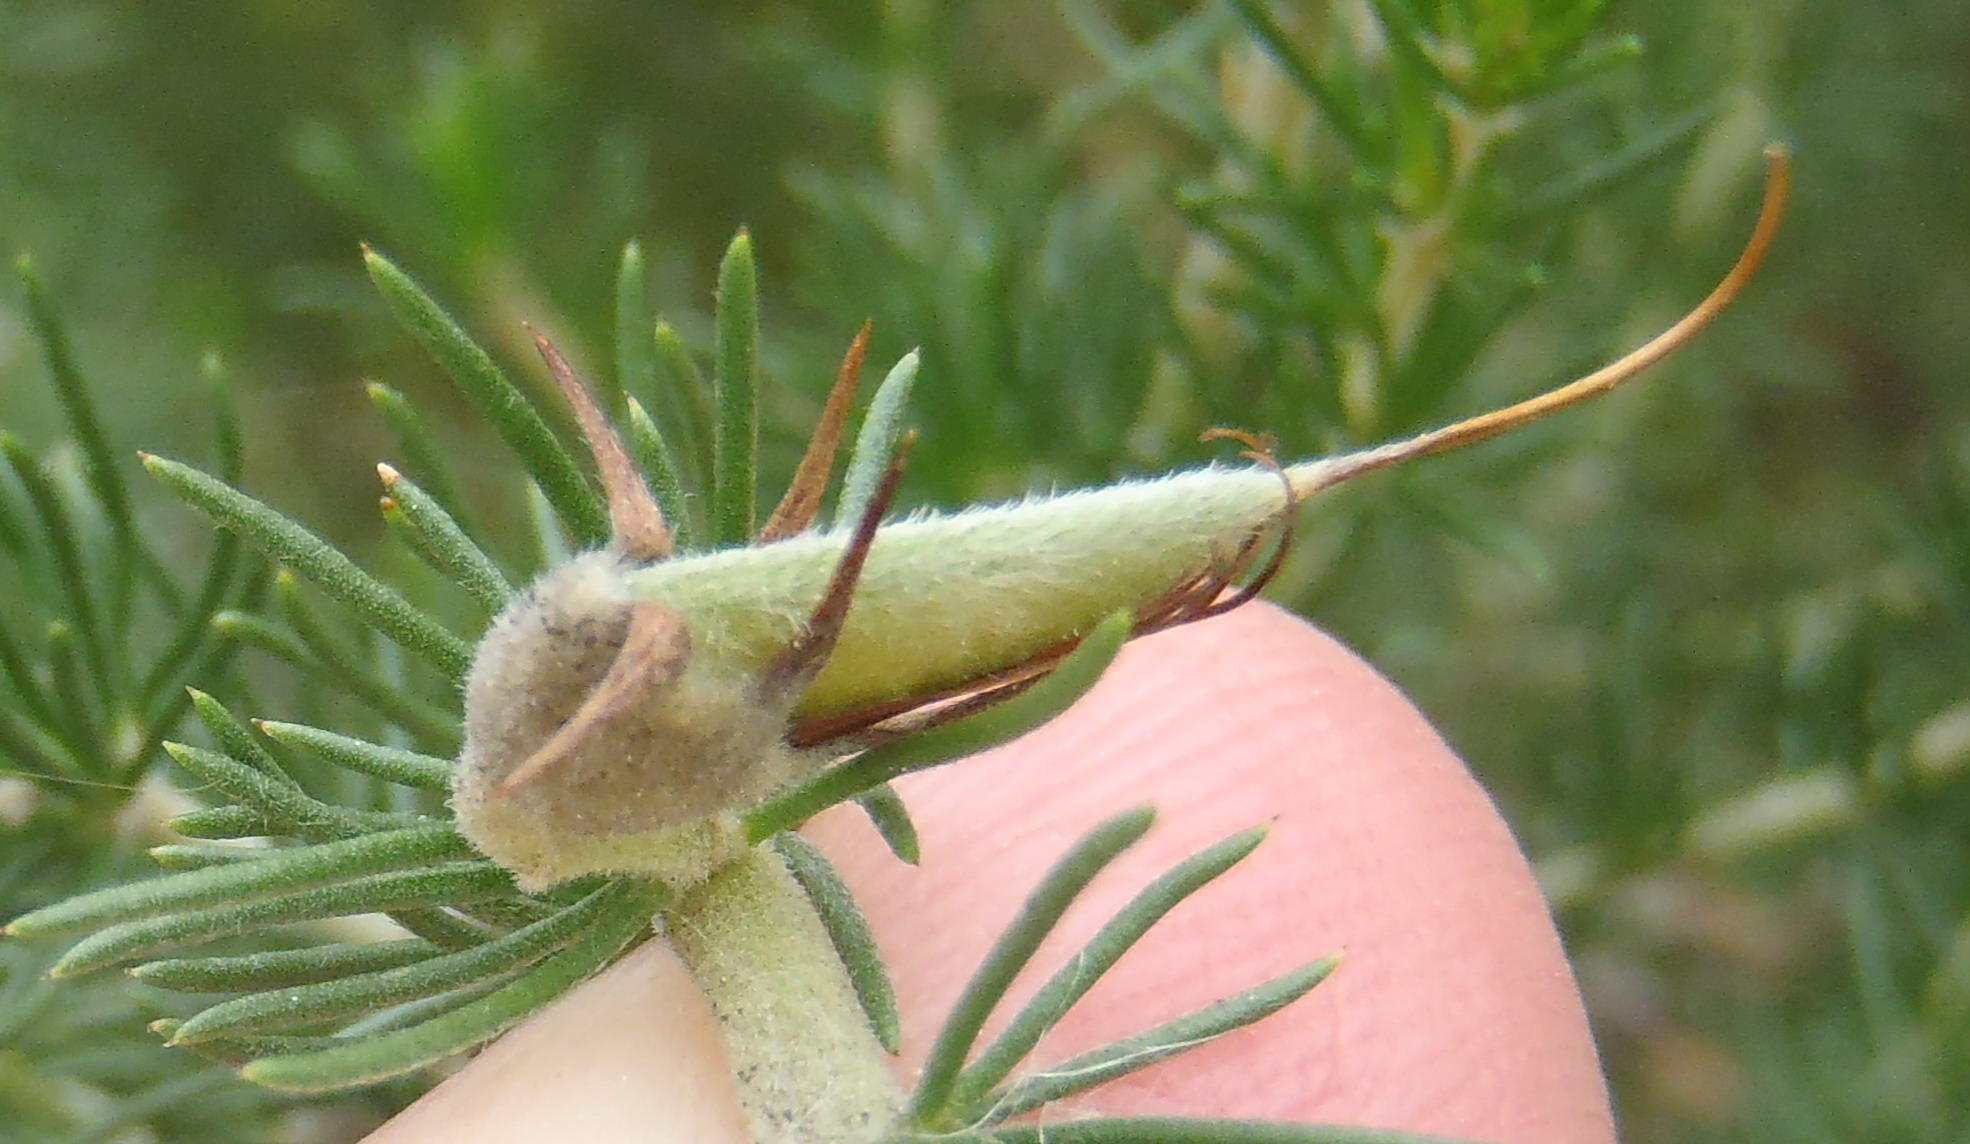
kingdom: Plantae
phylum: Tracheophyta
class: Magnoliopsida
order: Fabales
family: Fabaceae
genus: Aspalathus
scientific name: Aspalathus kougaensis
